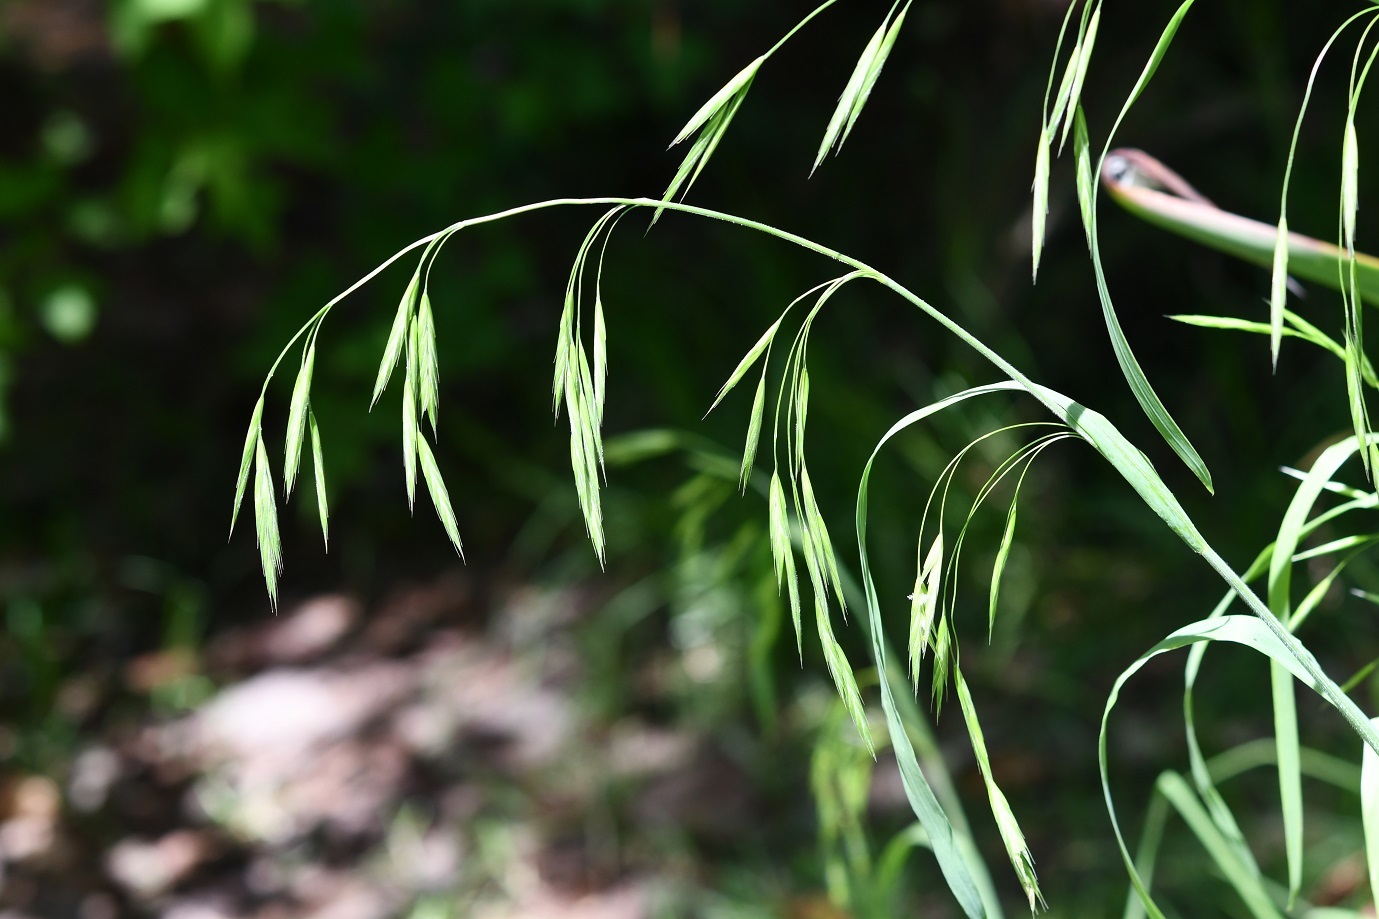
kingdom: Plantae
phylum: Tracheophyta
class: Liliopsida
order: Poales
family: Poaceae
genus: Bromus
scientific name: Bromus anomalus
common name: Nodding brome
